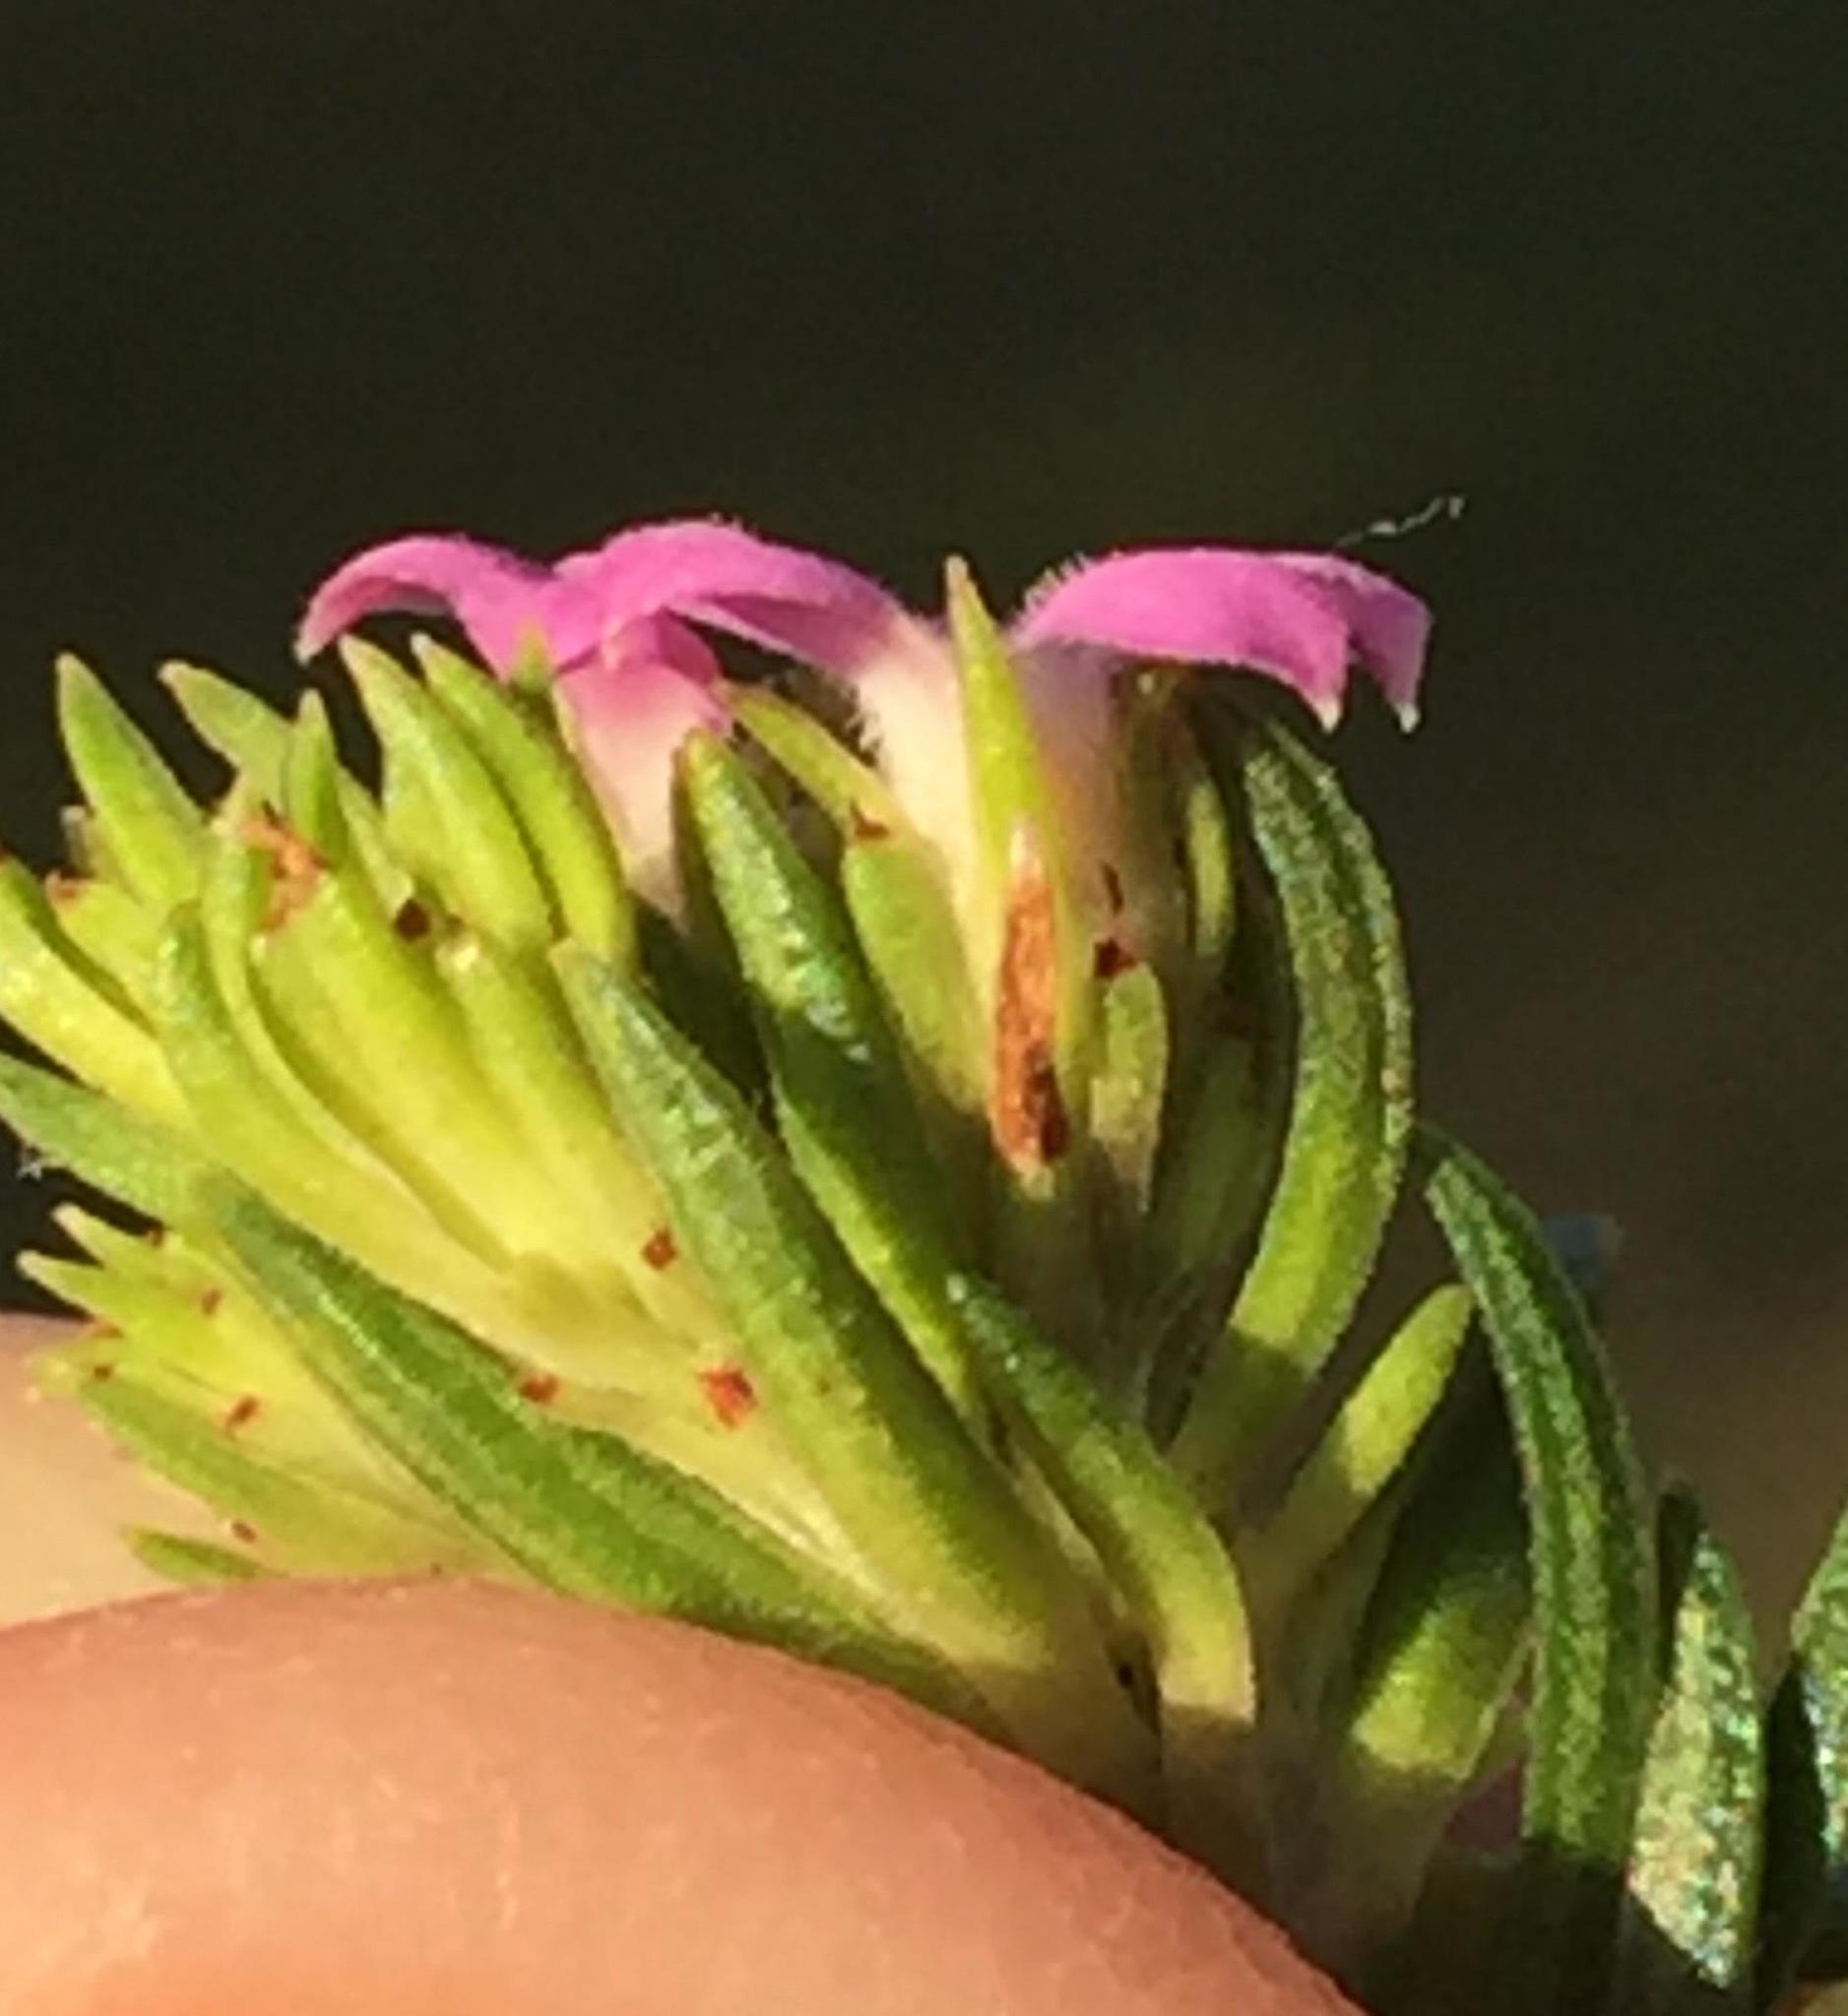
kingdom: Plantae
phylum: Tracheophyta
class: Magnoliopsida
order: Sapindales
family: Rutaceae
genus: Acmadenia
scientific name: Acmadenia alternifolia
